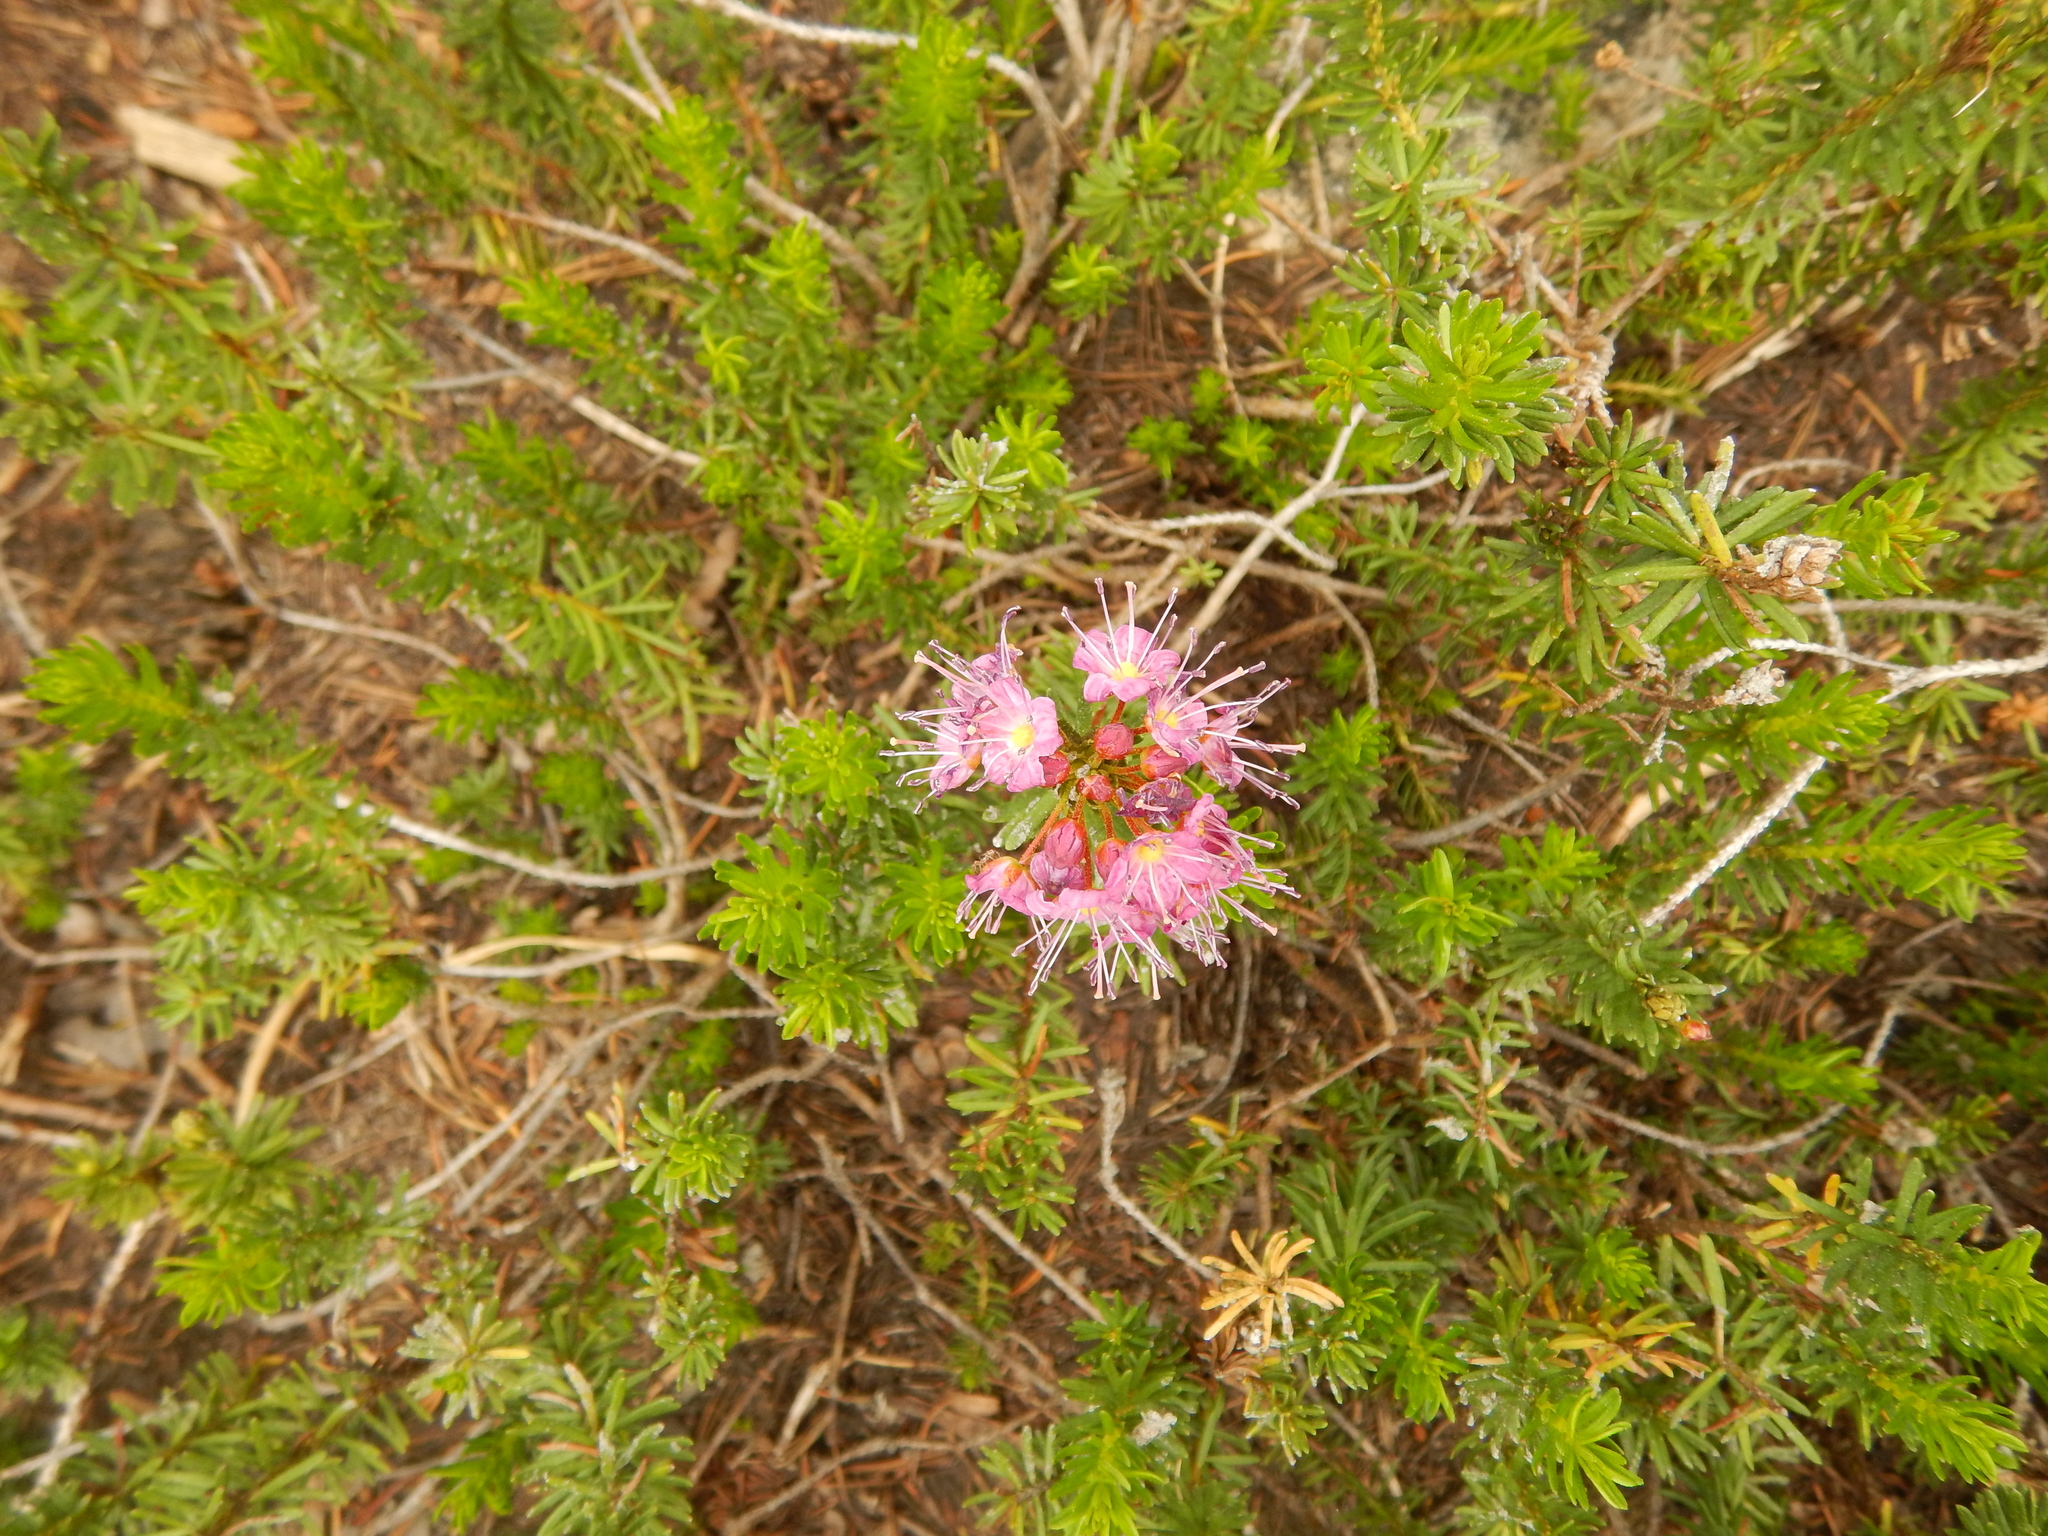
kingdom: Plantae
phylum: Tracheophyta
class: Magnoliopsida
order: Ericales
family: Ericaceae
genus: Phyllodoce
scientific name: Phyllodoce breweri
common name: Brewer's mountain-heather
